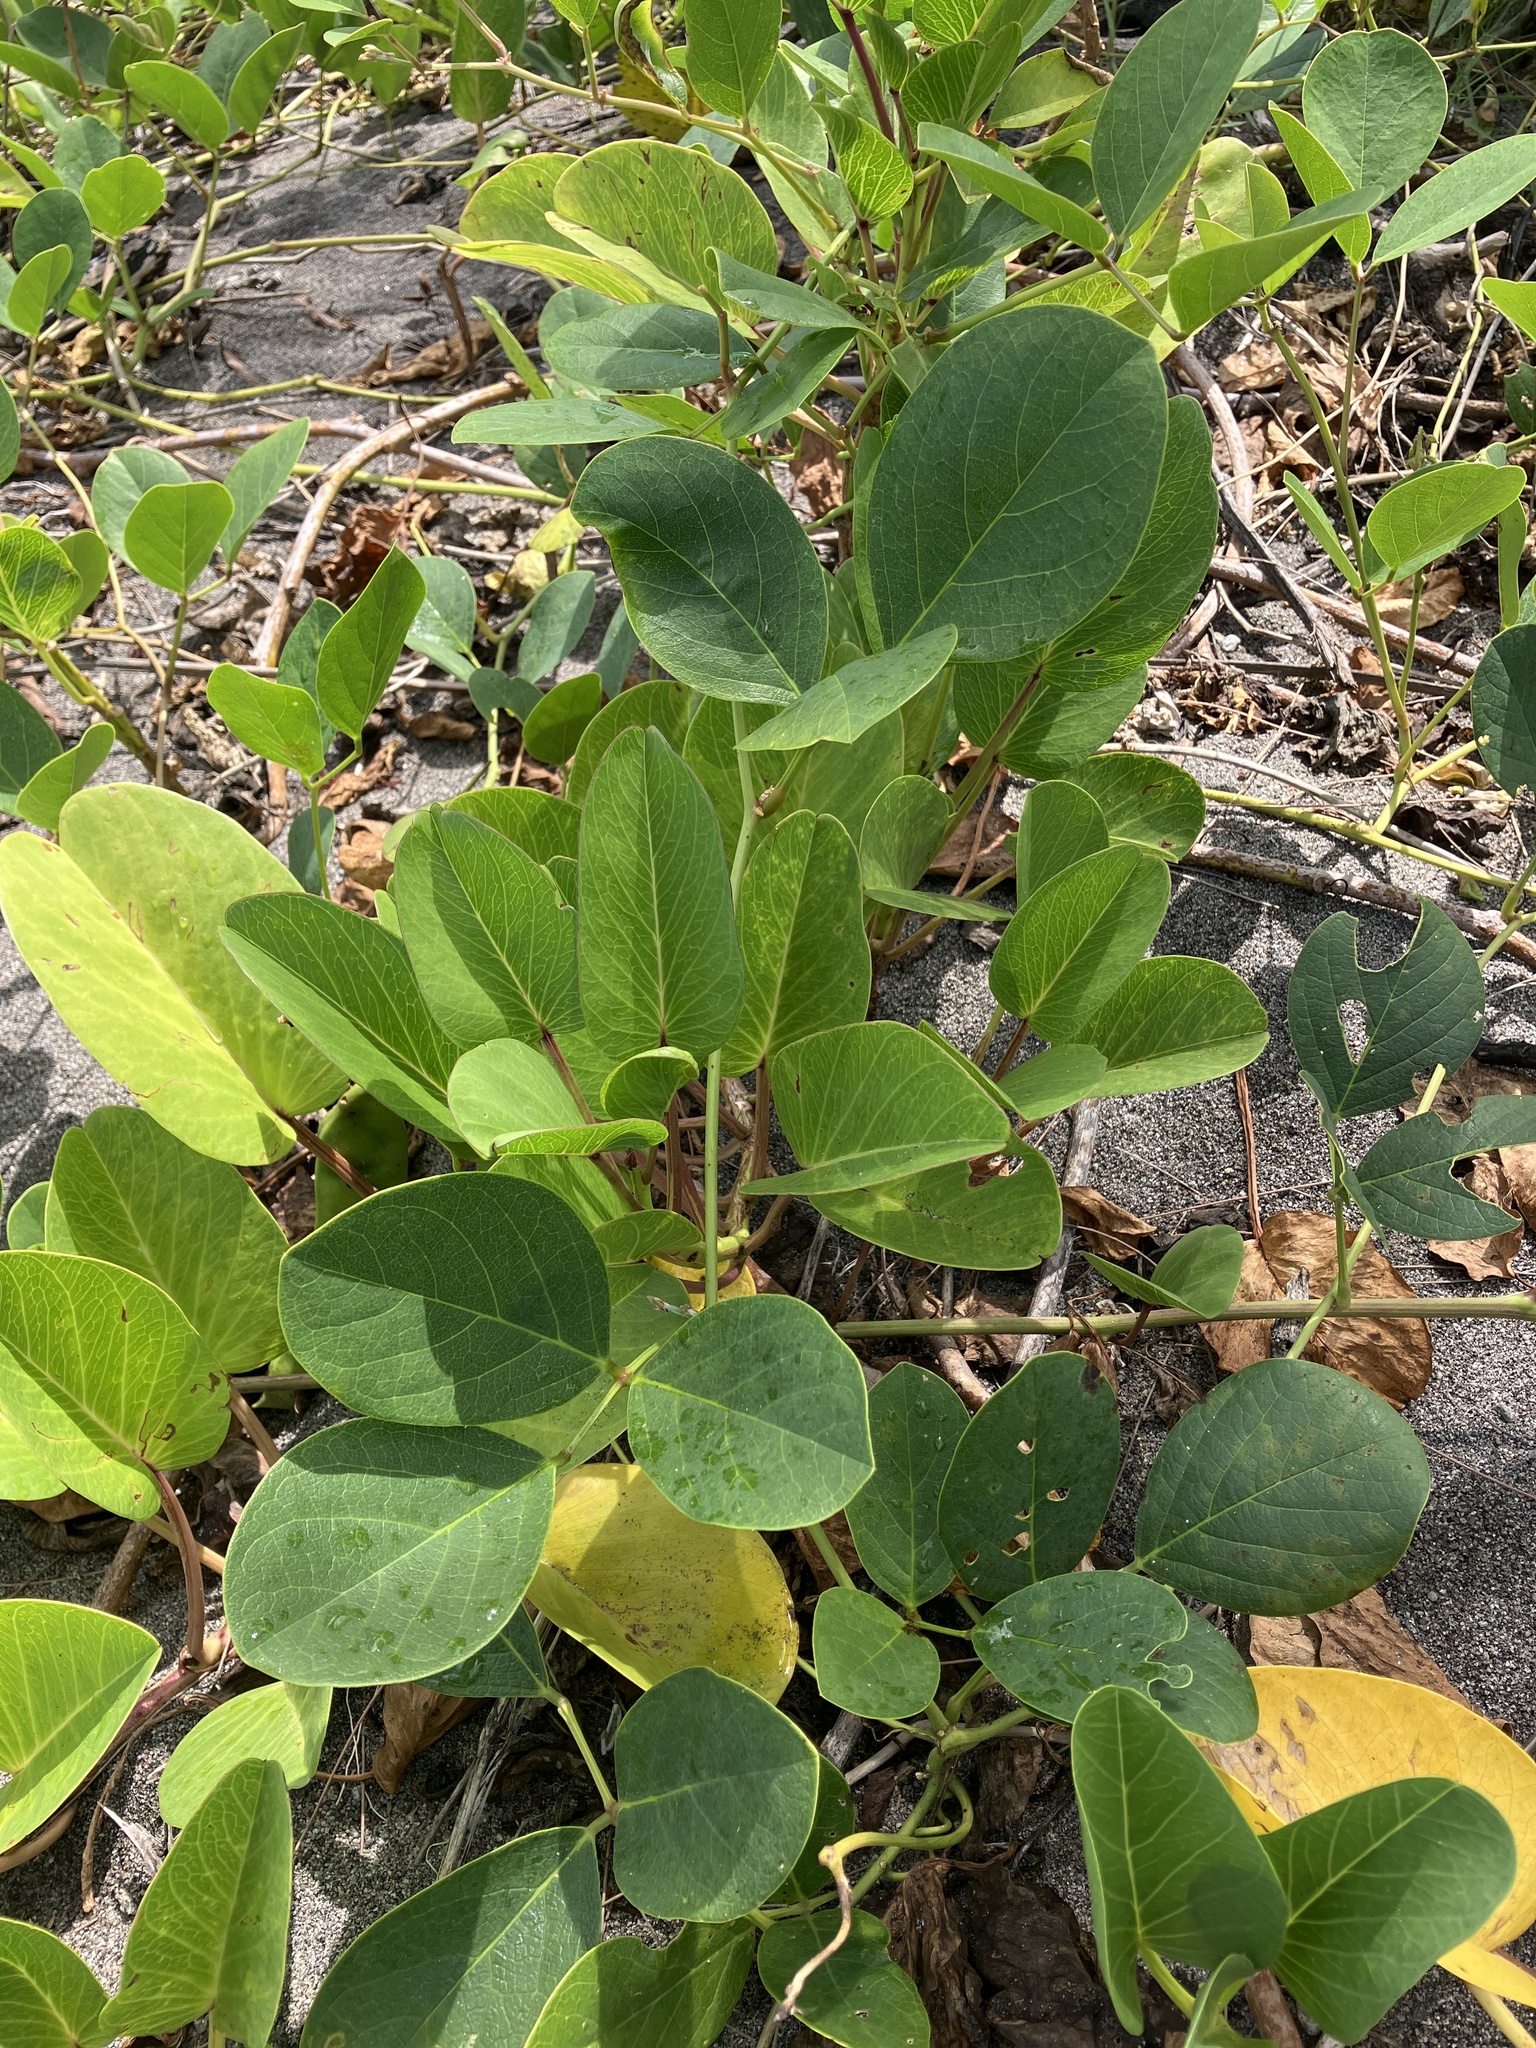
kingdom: Plantae
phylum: Tracheophyta
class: Magnoliopsida
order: Fabales
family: Fabaceae
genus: Canavalia
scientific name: Canavalia rosea
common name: Beach-bean
